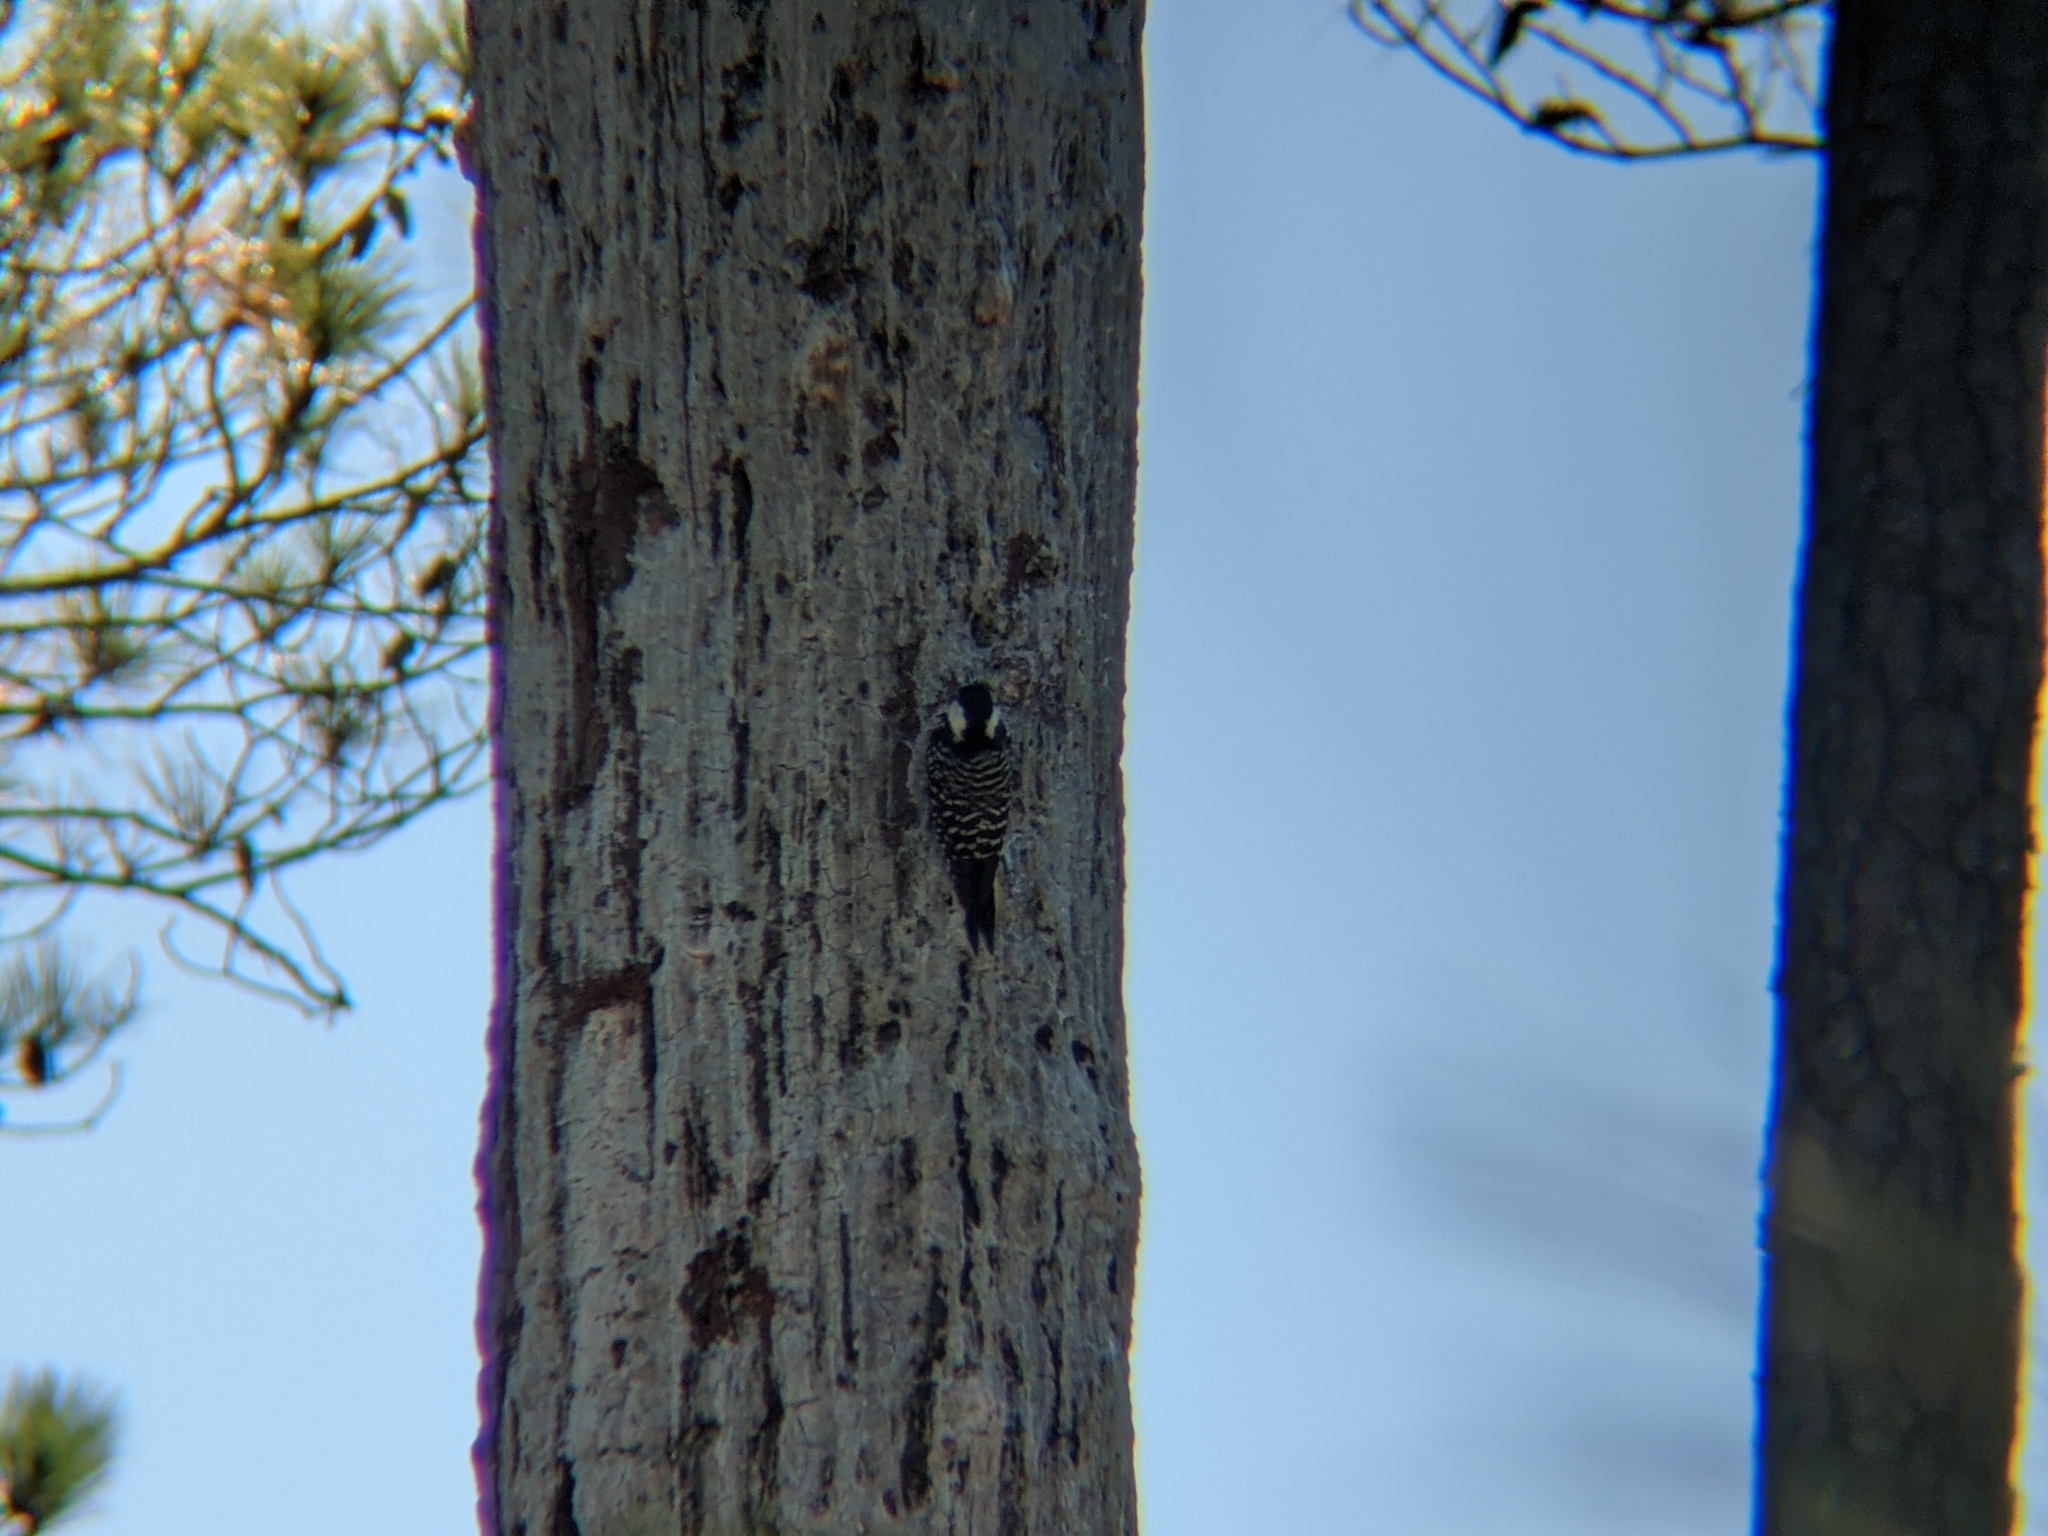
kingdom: Animalia
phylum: Chordata
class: Aves
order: Piciformes
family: Picidae
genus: Leuconotopicus
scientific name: Leuconotopicus borealis
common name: Red-cockaded woodpecker
